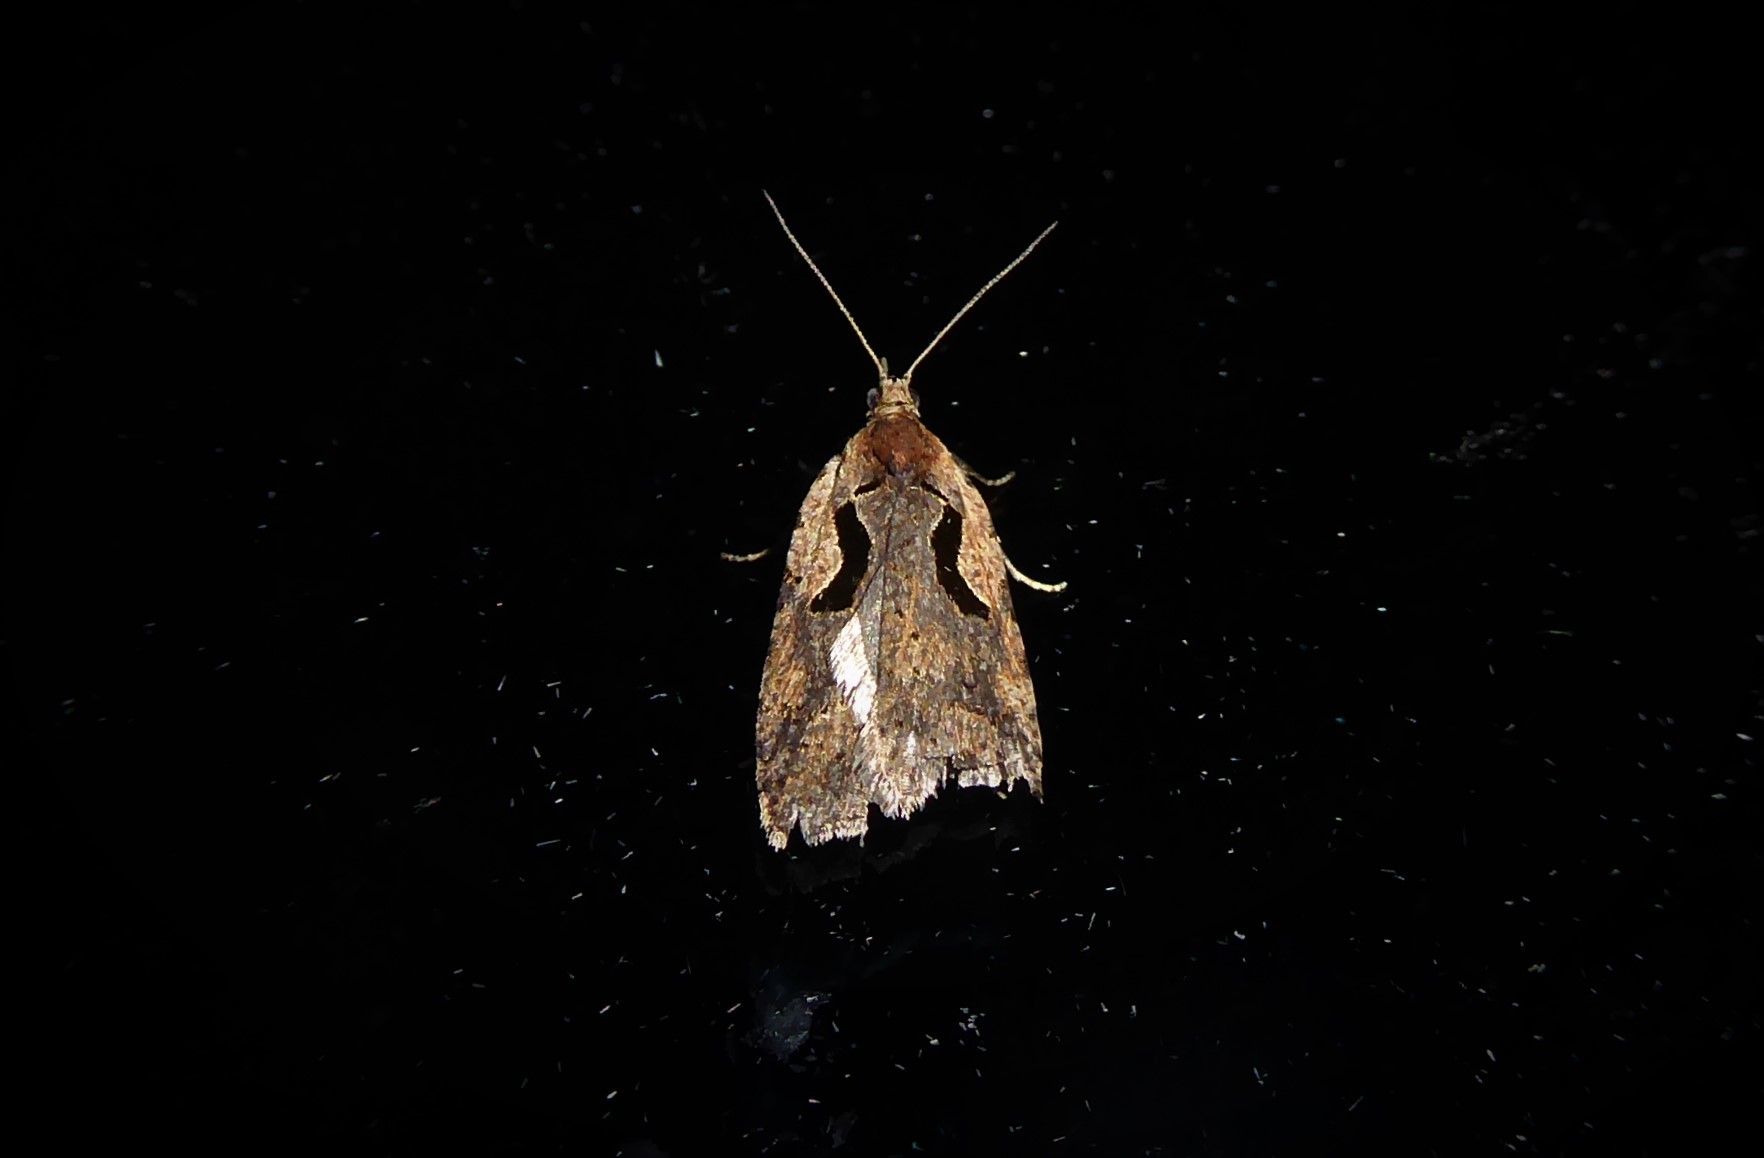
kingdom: Animalia
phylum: Arthropoda
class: Insecta
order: Lepidoptera
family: Tortricidae
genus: Cnephasia
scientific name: Cnephasia jactatana
